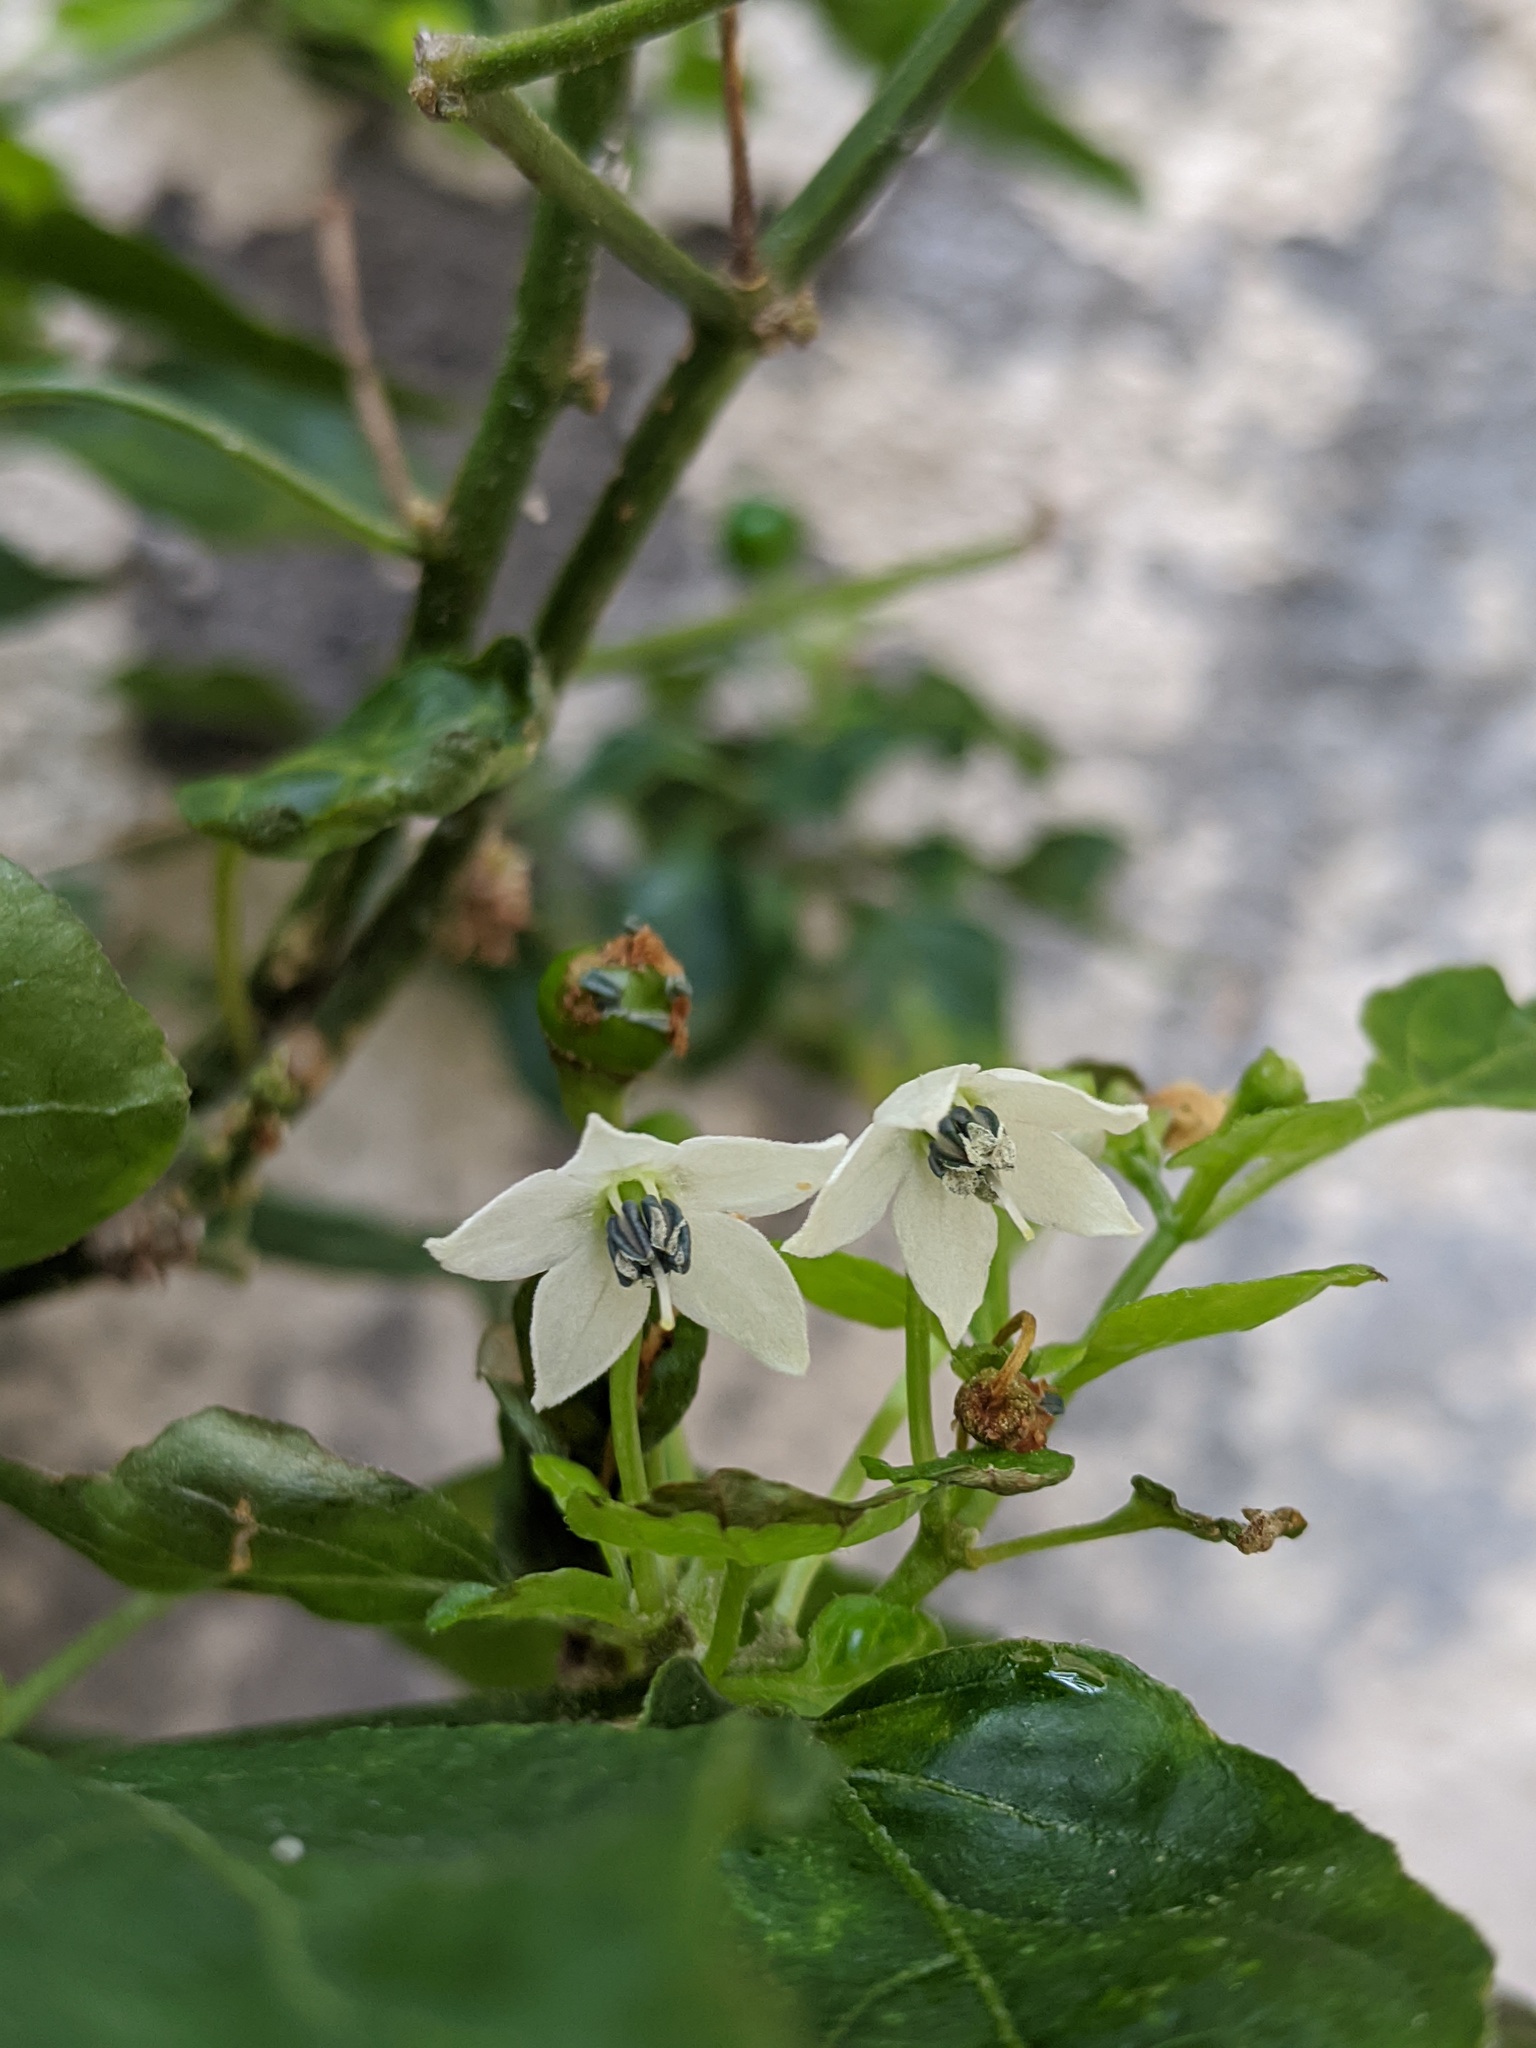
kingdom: Plantae
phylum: Tracheophyta
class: Magnoliopsida
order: Solanales
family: Solanaceae
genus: Capsicum
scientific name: Capsicum annuum
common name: Sweet pepper
